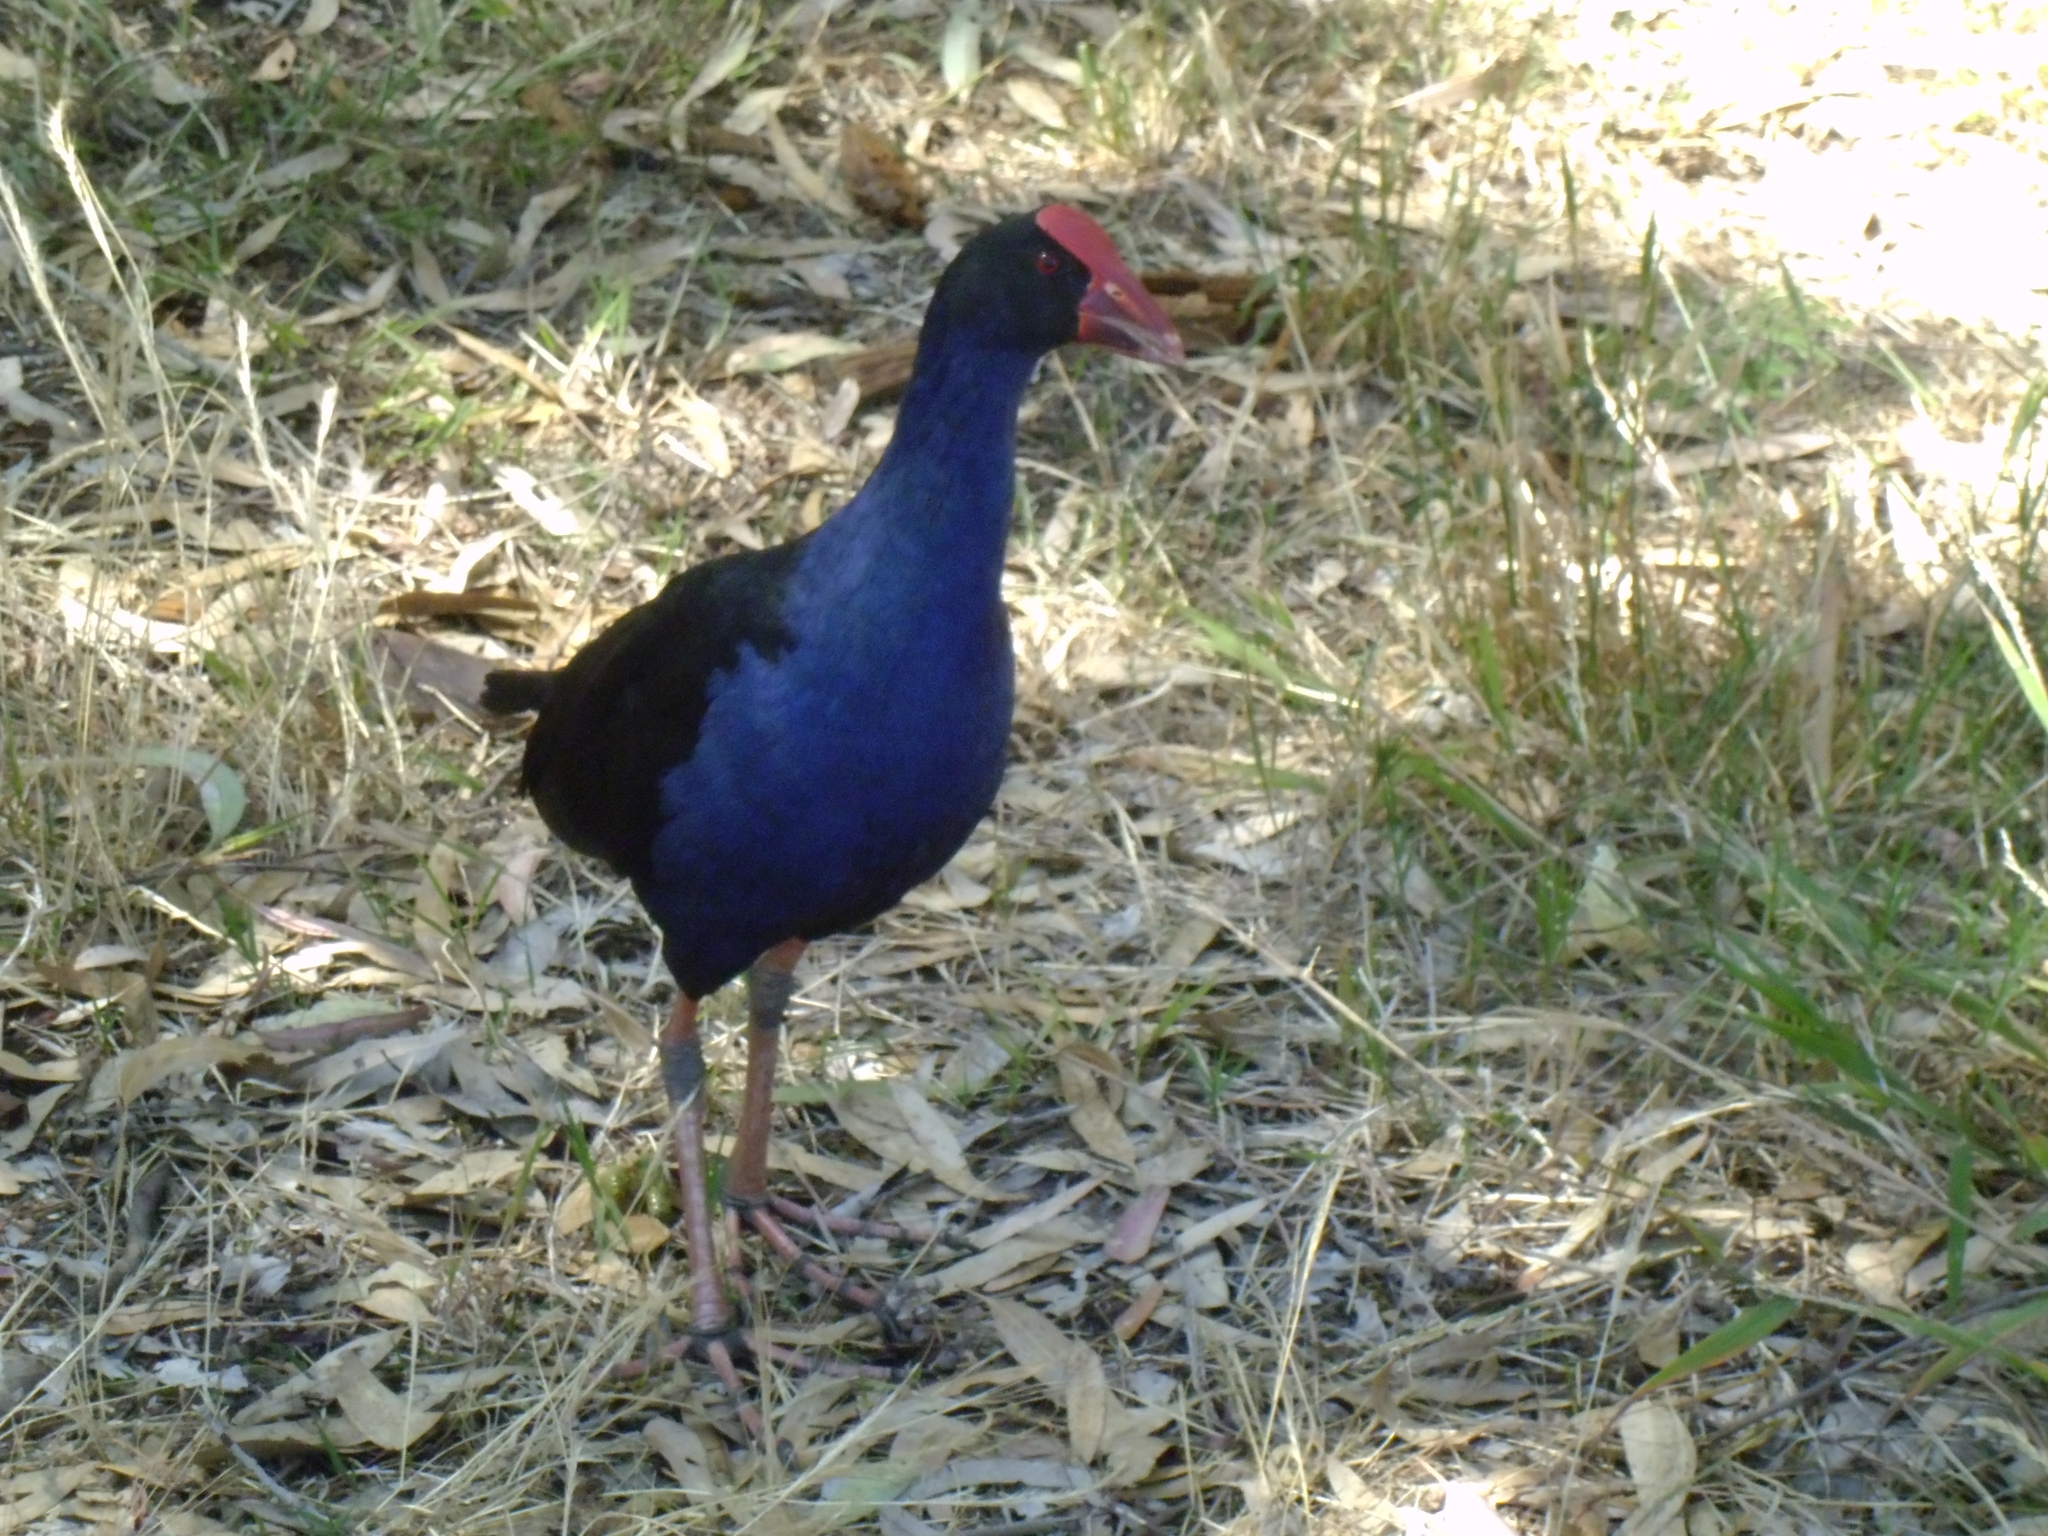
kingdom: Animalia
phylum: Chordata
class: Aves
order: Gruiformes
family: Rallidae
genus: Porphyrio
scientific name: Porphyrio melanotus
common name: Australasian swamphen
